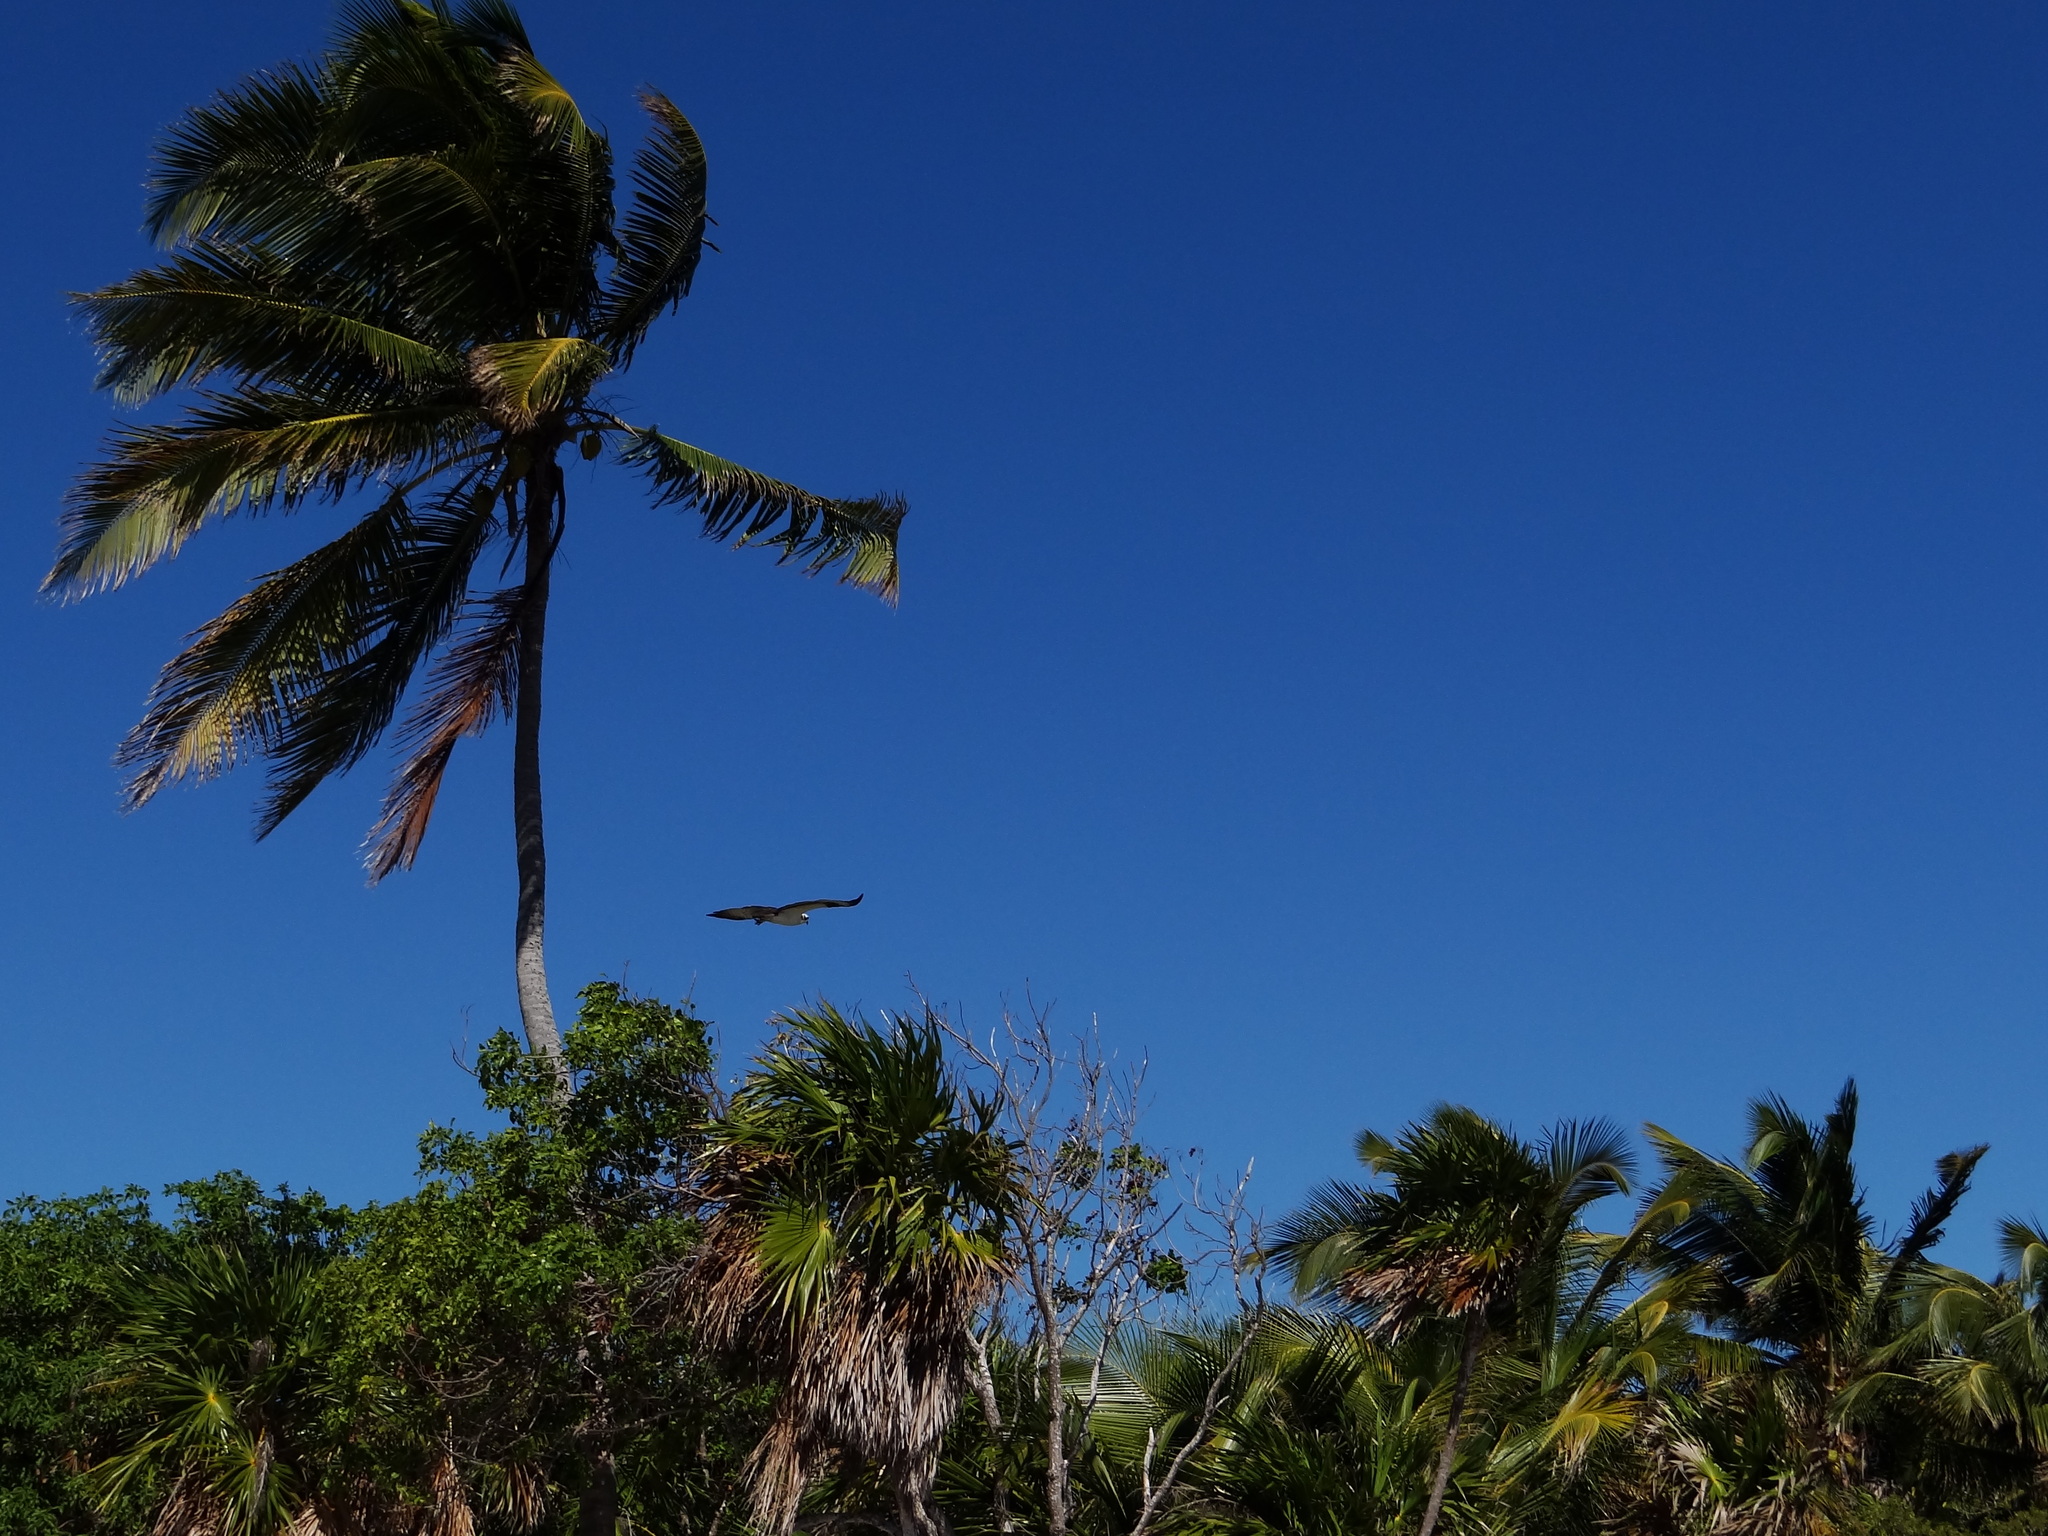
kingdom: Animalia
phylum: Chordata
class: Aves
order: Accipitriformes
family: Pandionidae
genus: Pandion
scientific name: Pandion haliaetus
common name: Osprey
